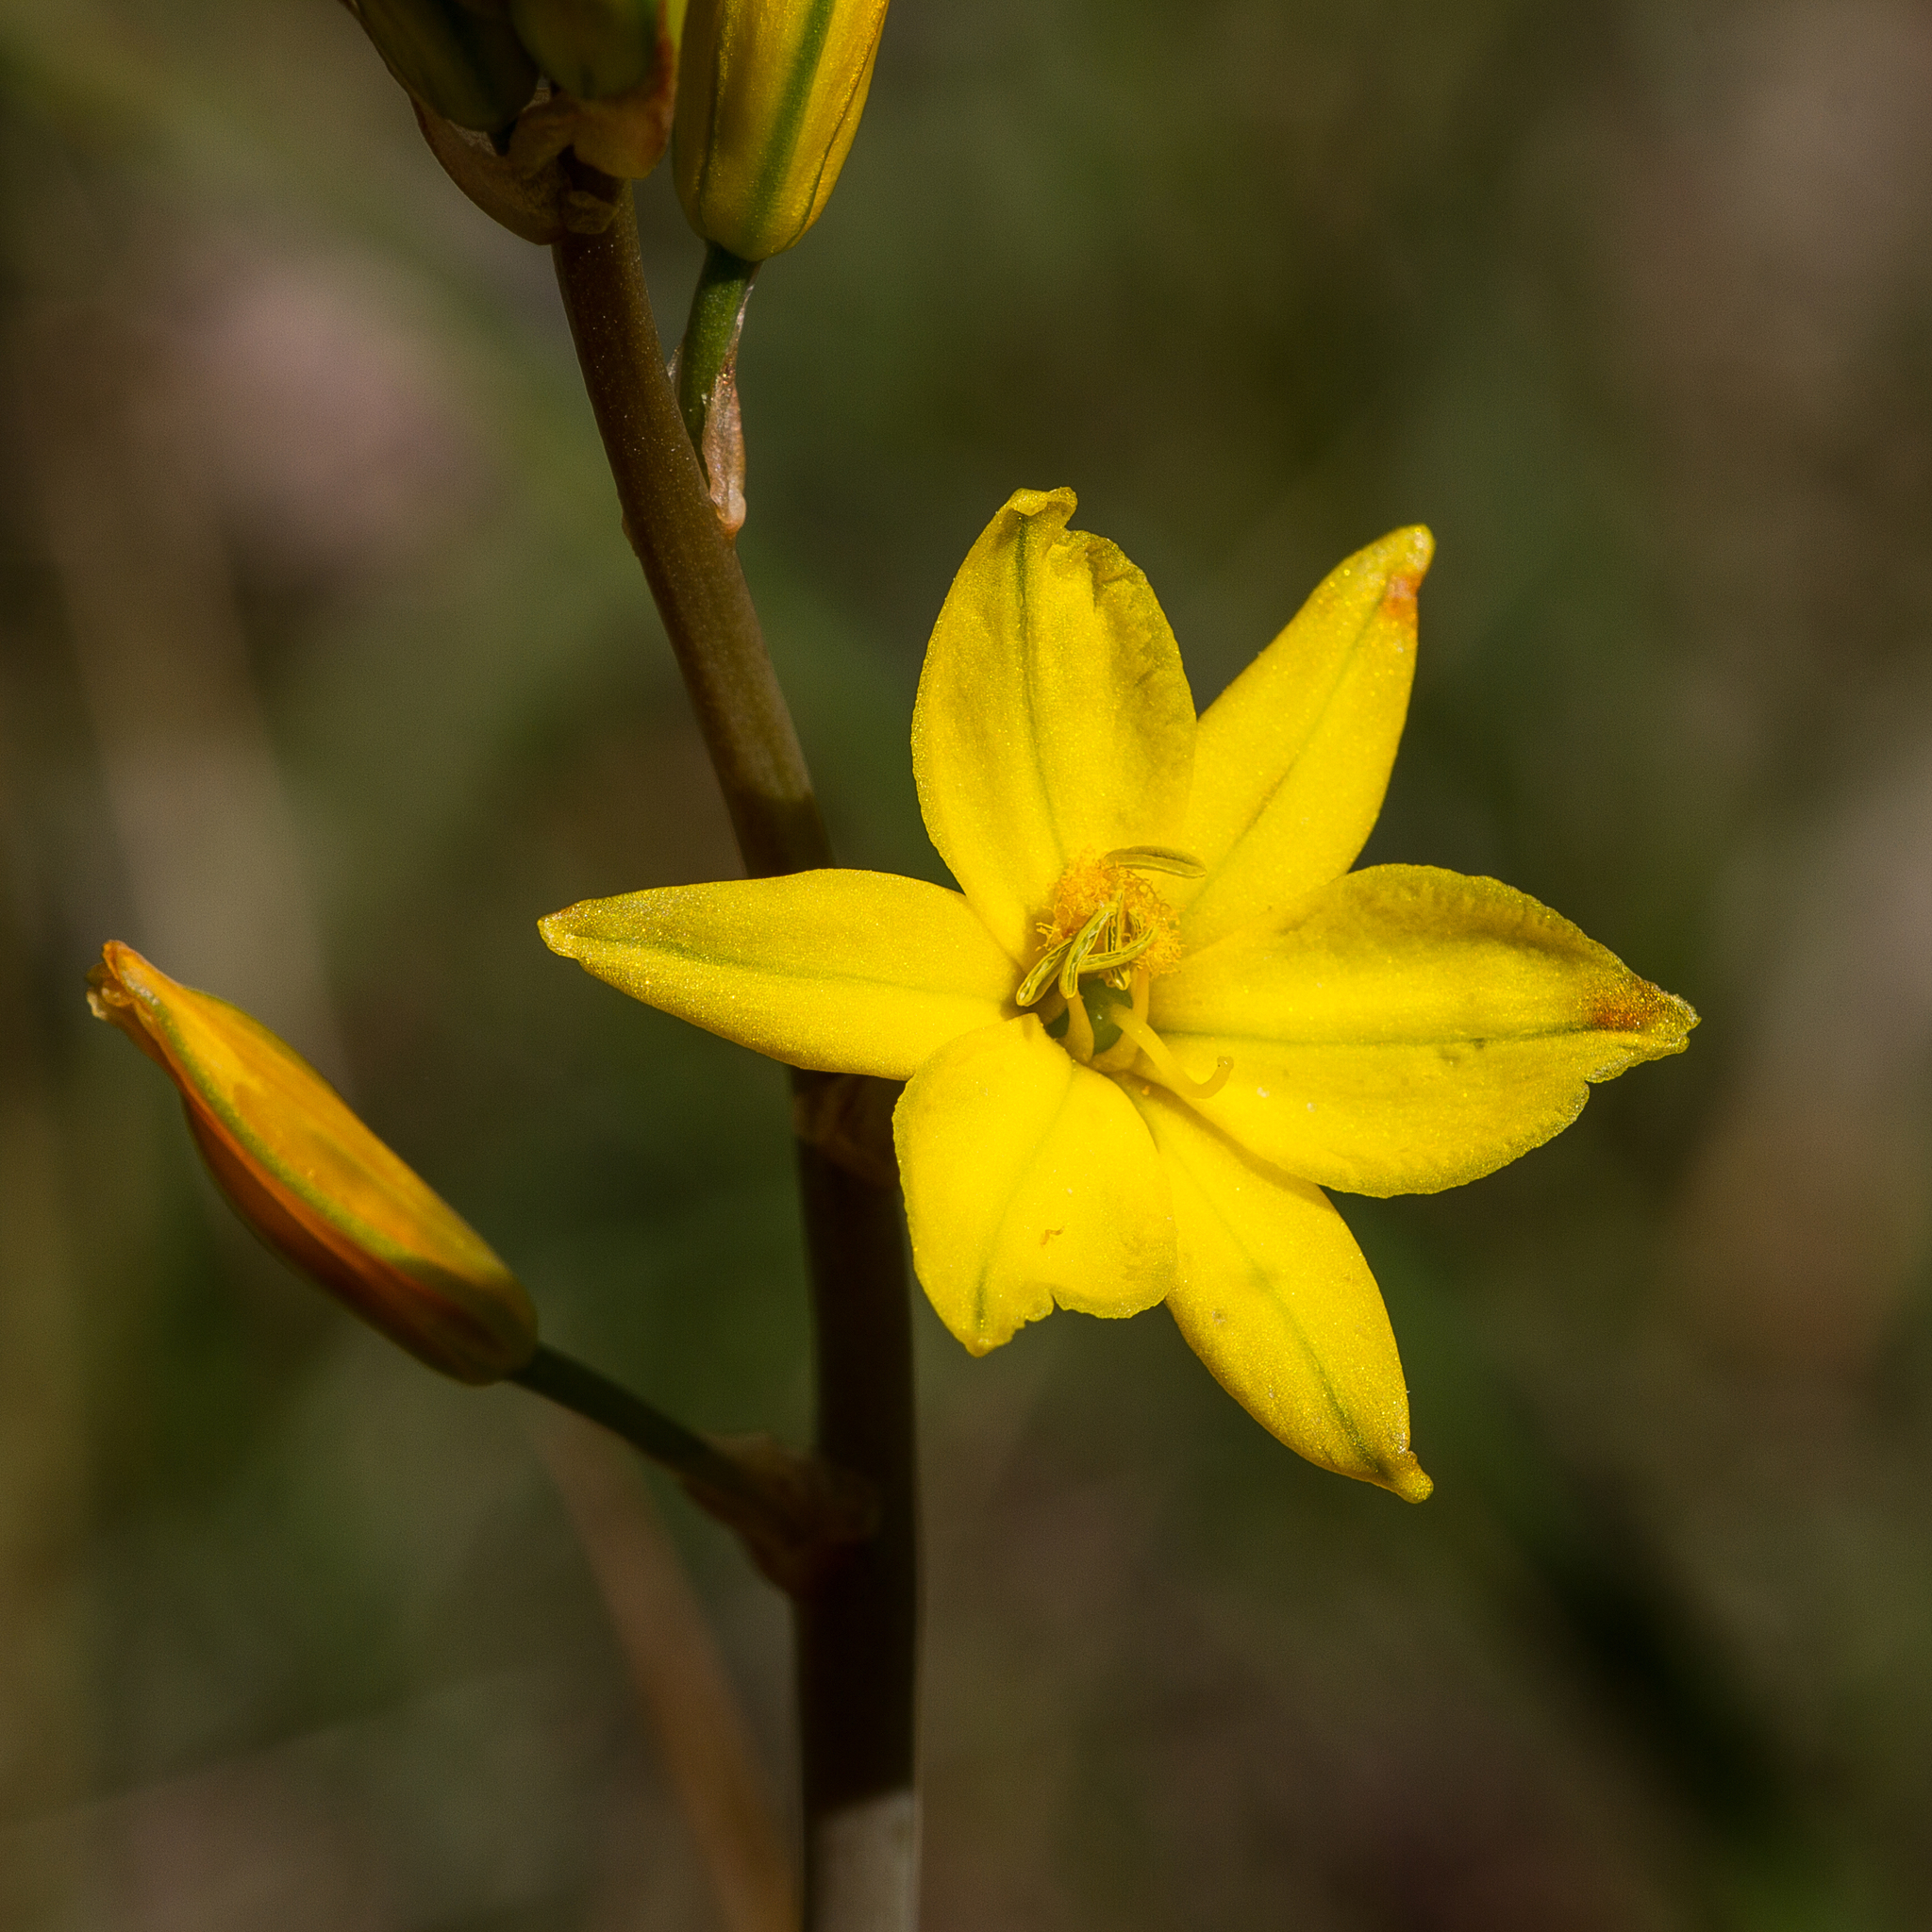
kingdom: Plantae
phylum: Tracheophyta
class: Liliopsida
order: Asparagales
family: Asphodelaceae
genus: Bulbine
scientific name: Bulbine bulbosa
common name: Golden-lily
